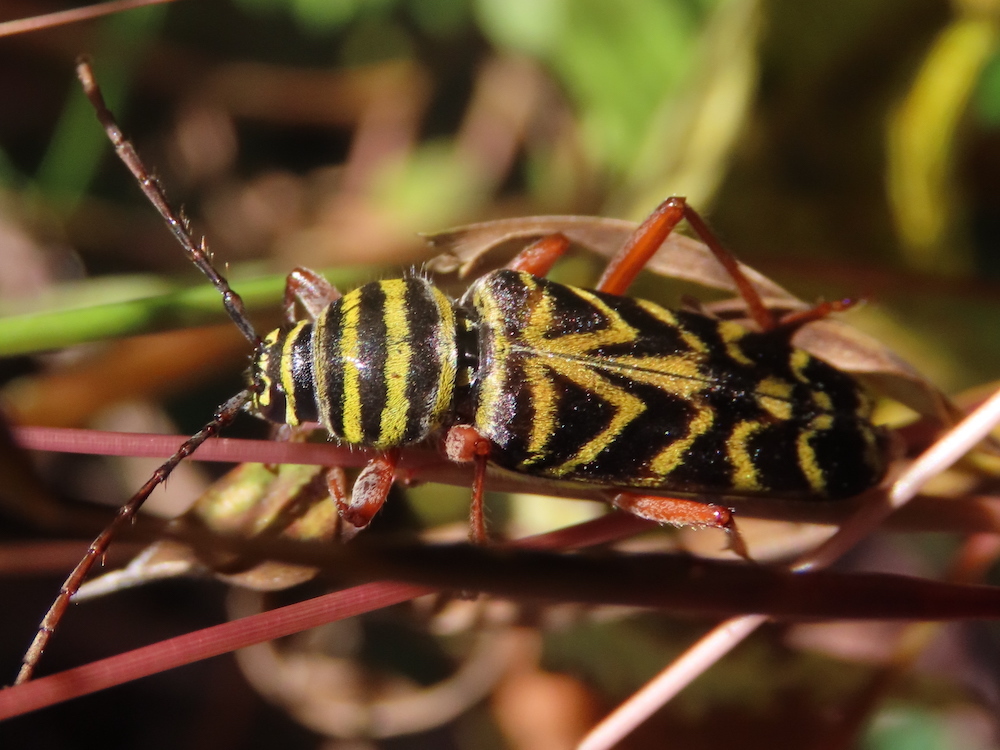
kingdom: Animalia
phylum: Arthropoda
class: Insecta
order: Coleoptera
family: Cerambycidae
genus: Megacyllene
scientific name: Megacyllene robiniae
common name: Locust borer
